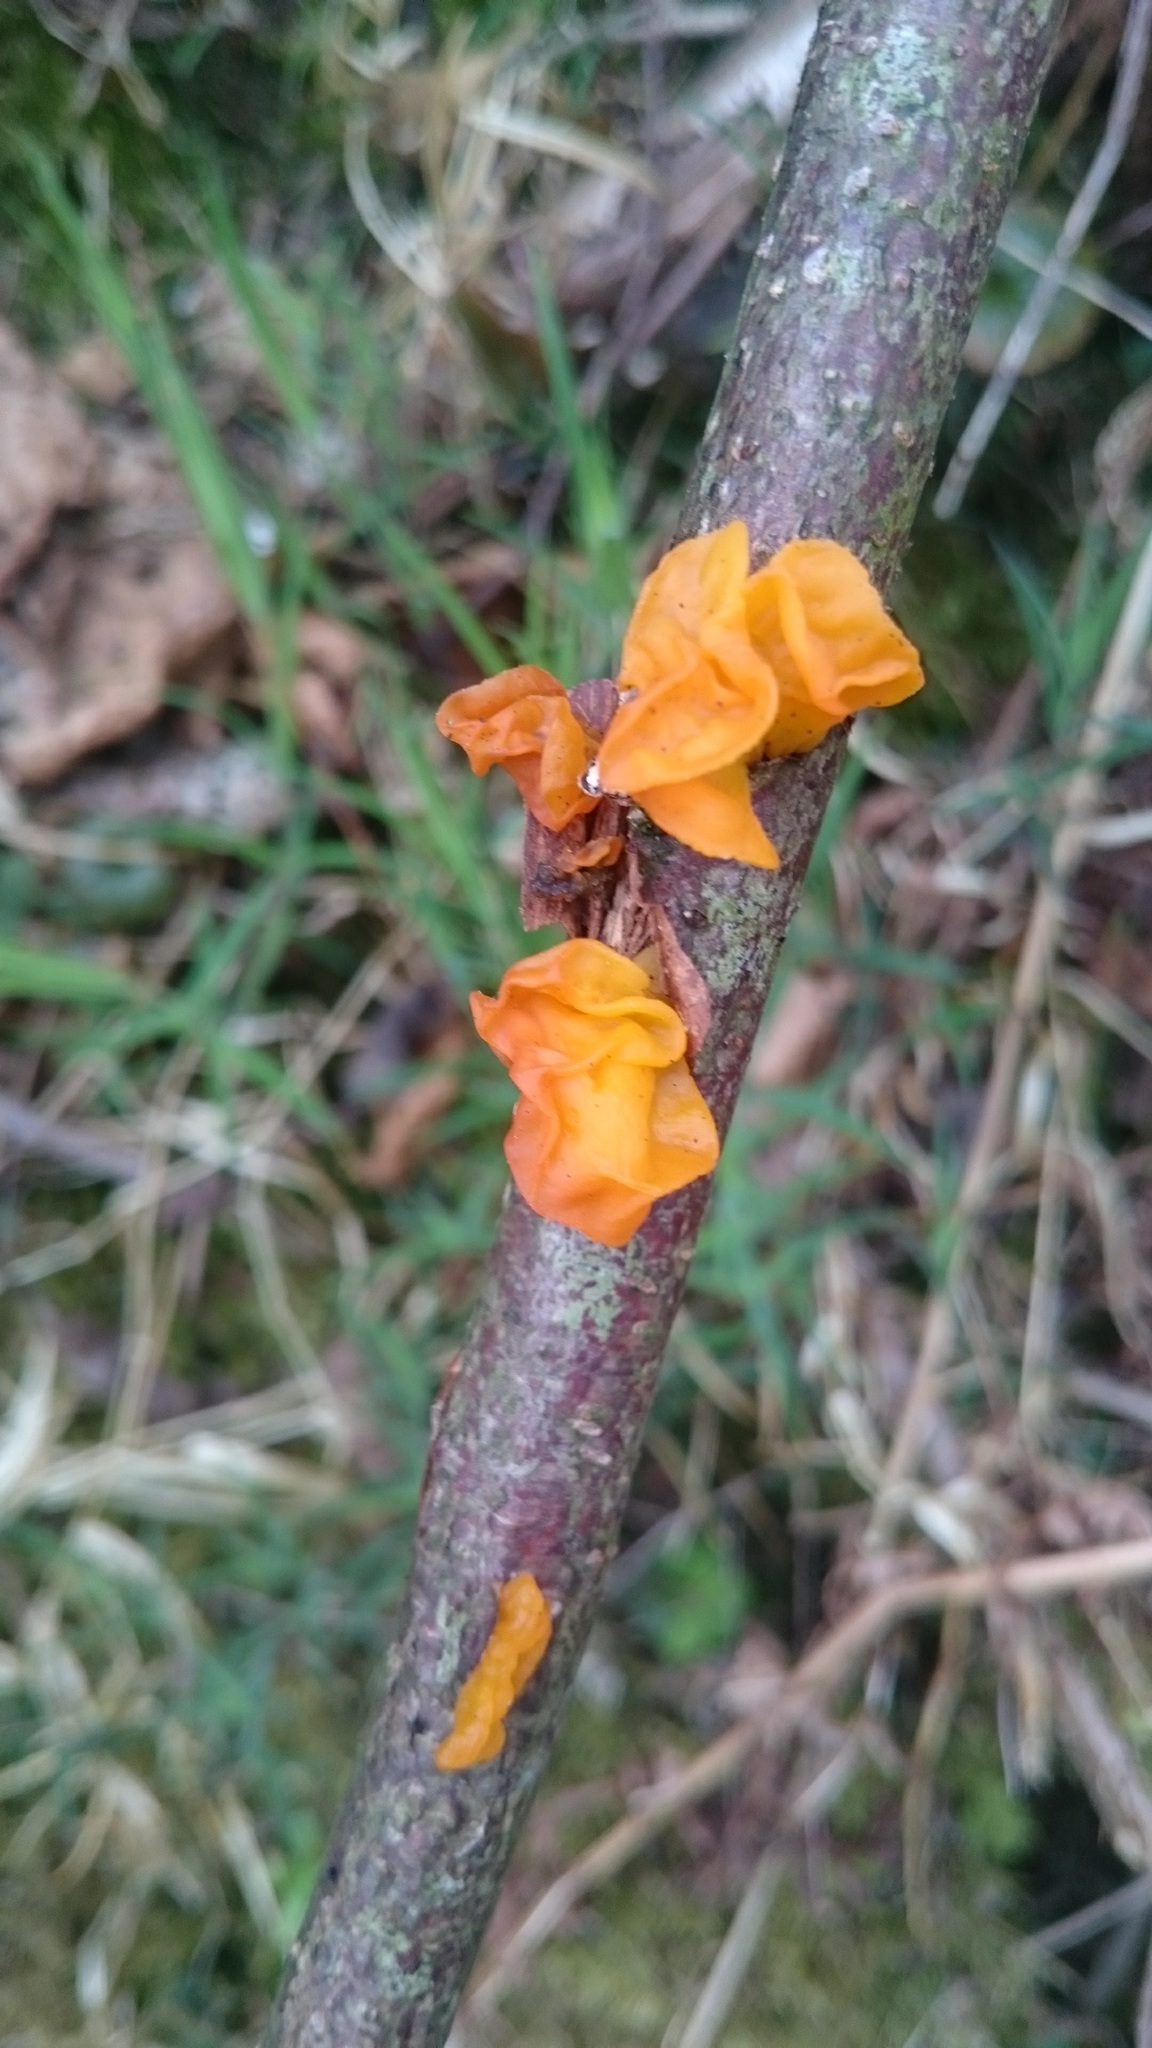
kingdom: Fungi
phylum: Basidiomycota
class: Tremellomycetes
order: Tremellales
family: Tremellaceae
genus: Tremella
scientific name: Tremella mesenterica
